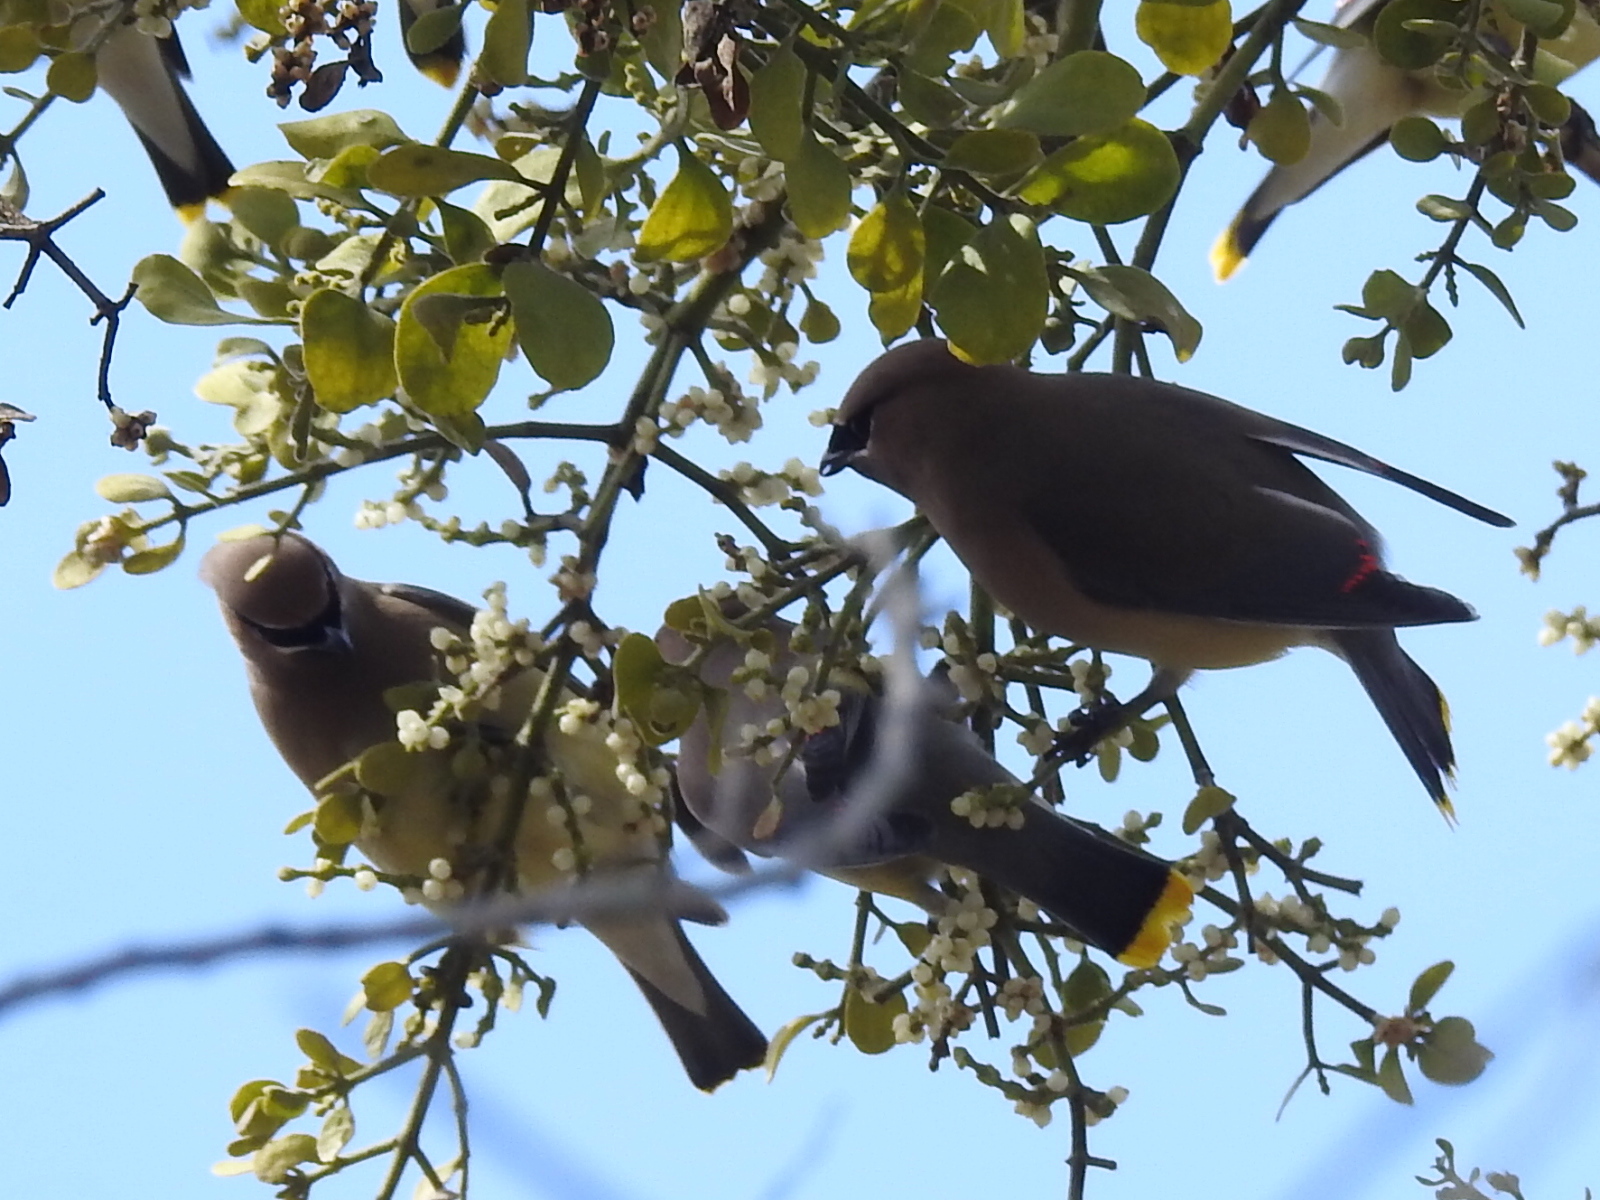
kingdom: Animalia
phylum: Chordata
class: Aves
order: Passeriformes
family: Bombycillidae
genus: Bombycilla
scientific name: Bombycilla cedrorum
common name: Cedar waxwing
